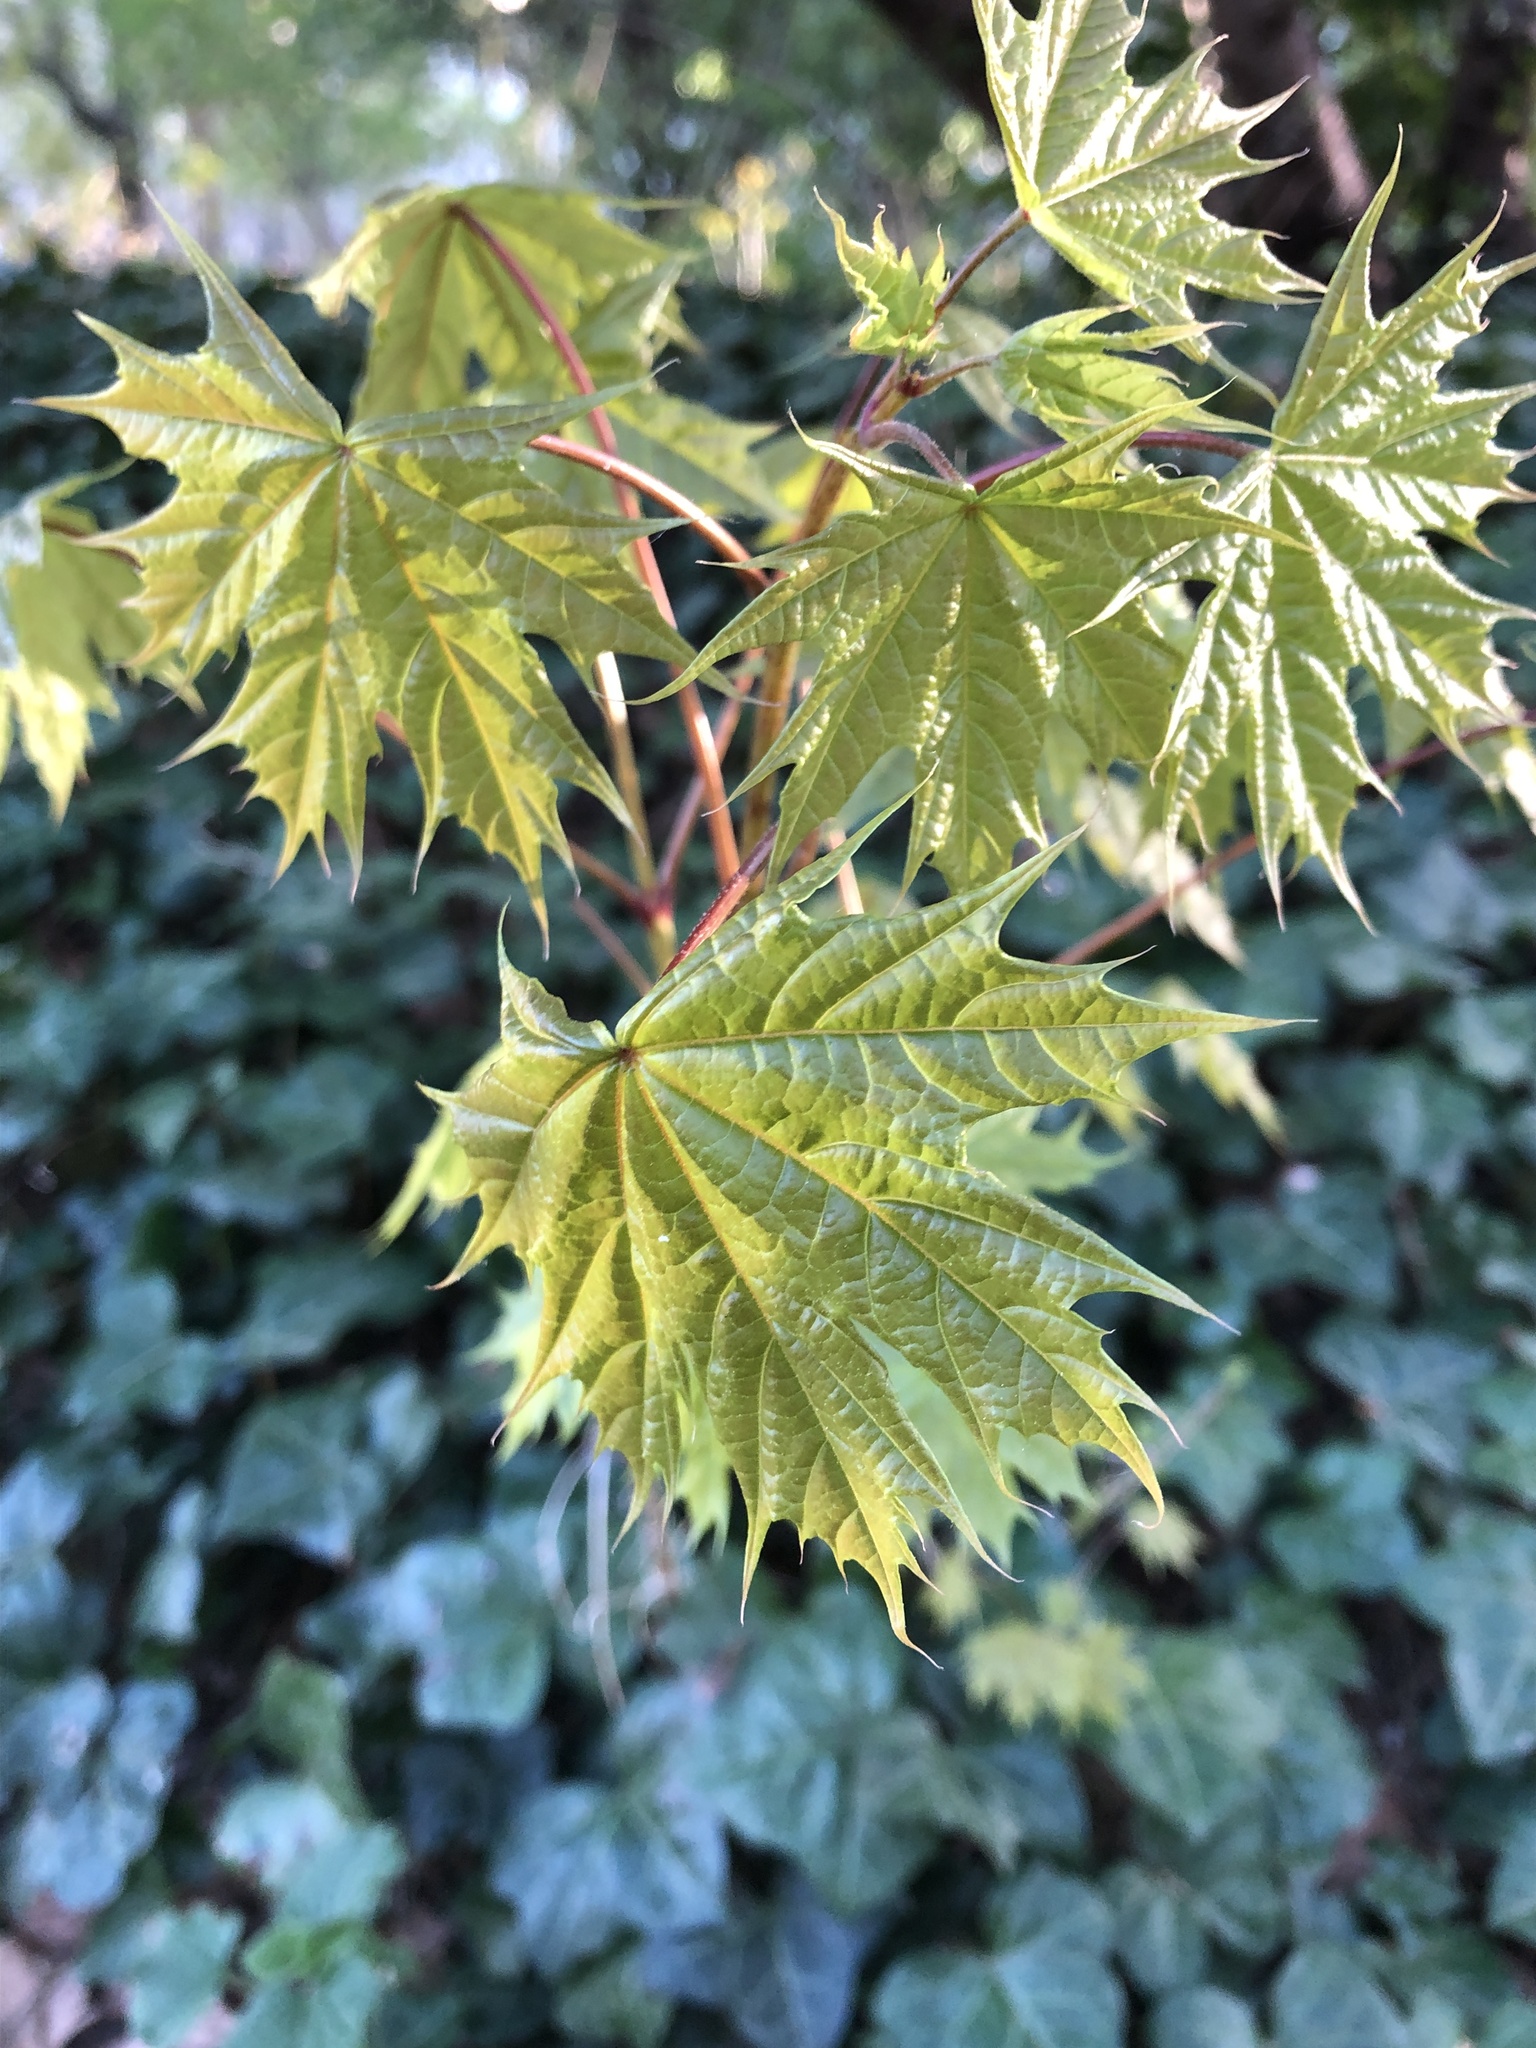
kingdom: Plantae
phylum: Tracheophyta
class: Magnoliopsida
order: Sapindales
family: Sapindaceae
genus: Acer
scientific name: Acer platanoides
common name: Norway maple
